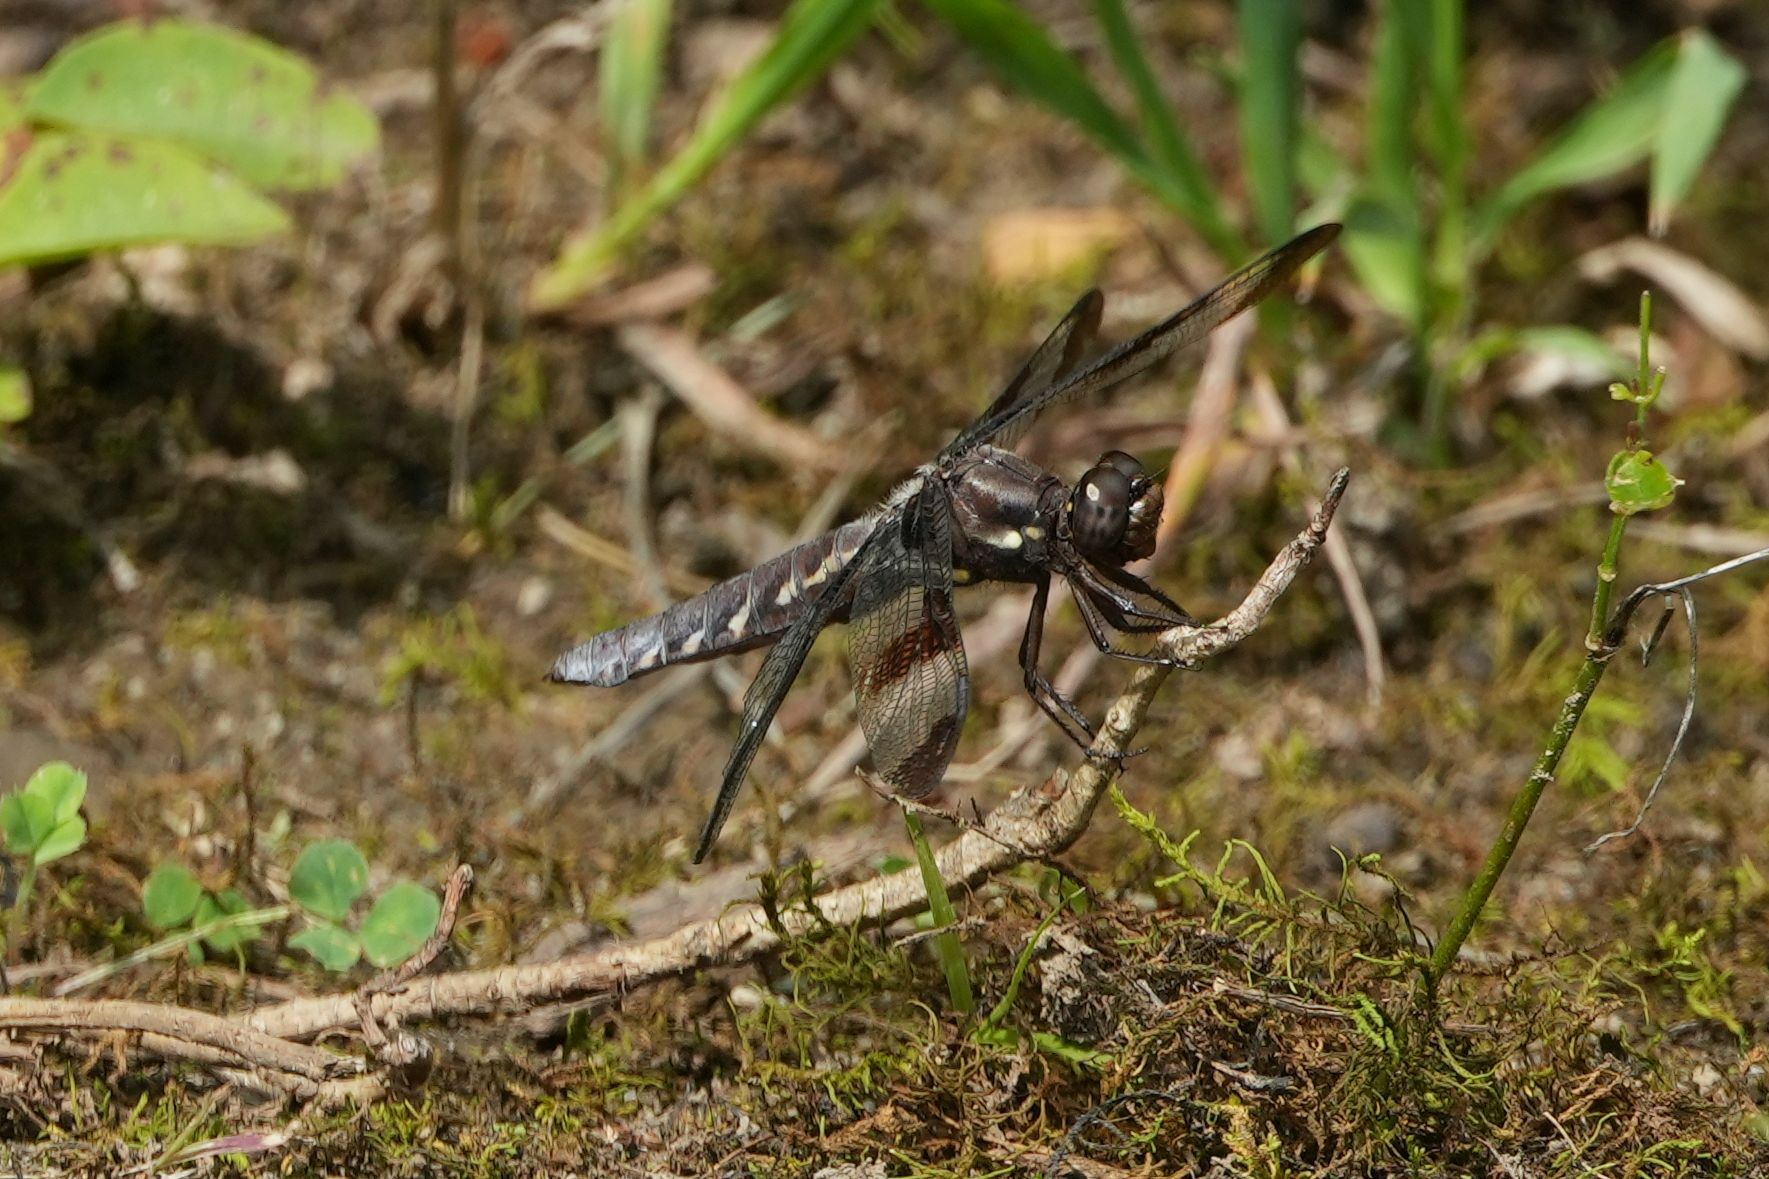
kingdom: Animalia
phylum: Arthropoda
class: Insecta
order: Odonata
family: Libellulidae
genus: Plathemis
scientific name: Plathemis lydia
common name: Common whitetail
